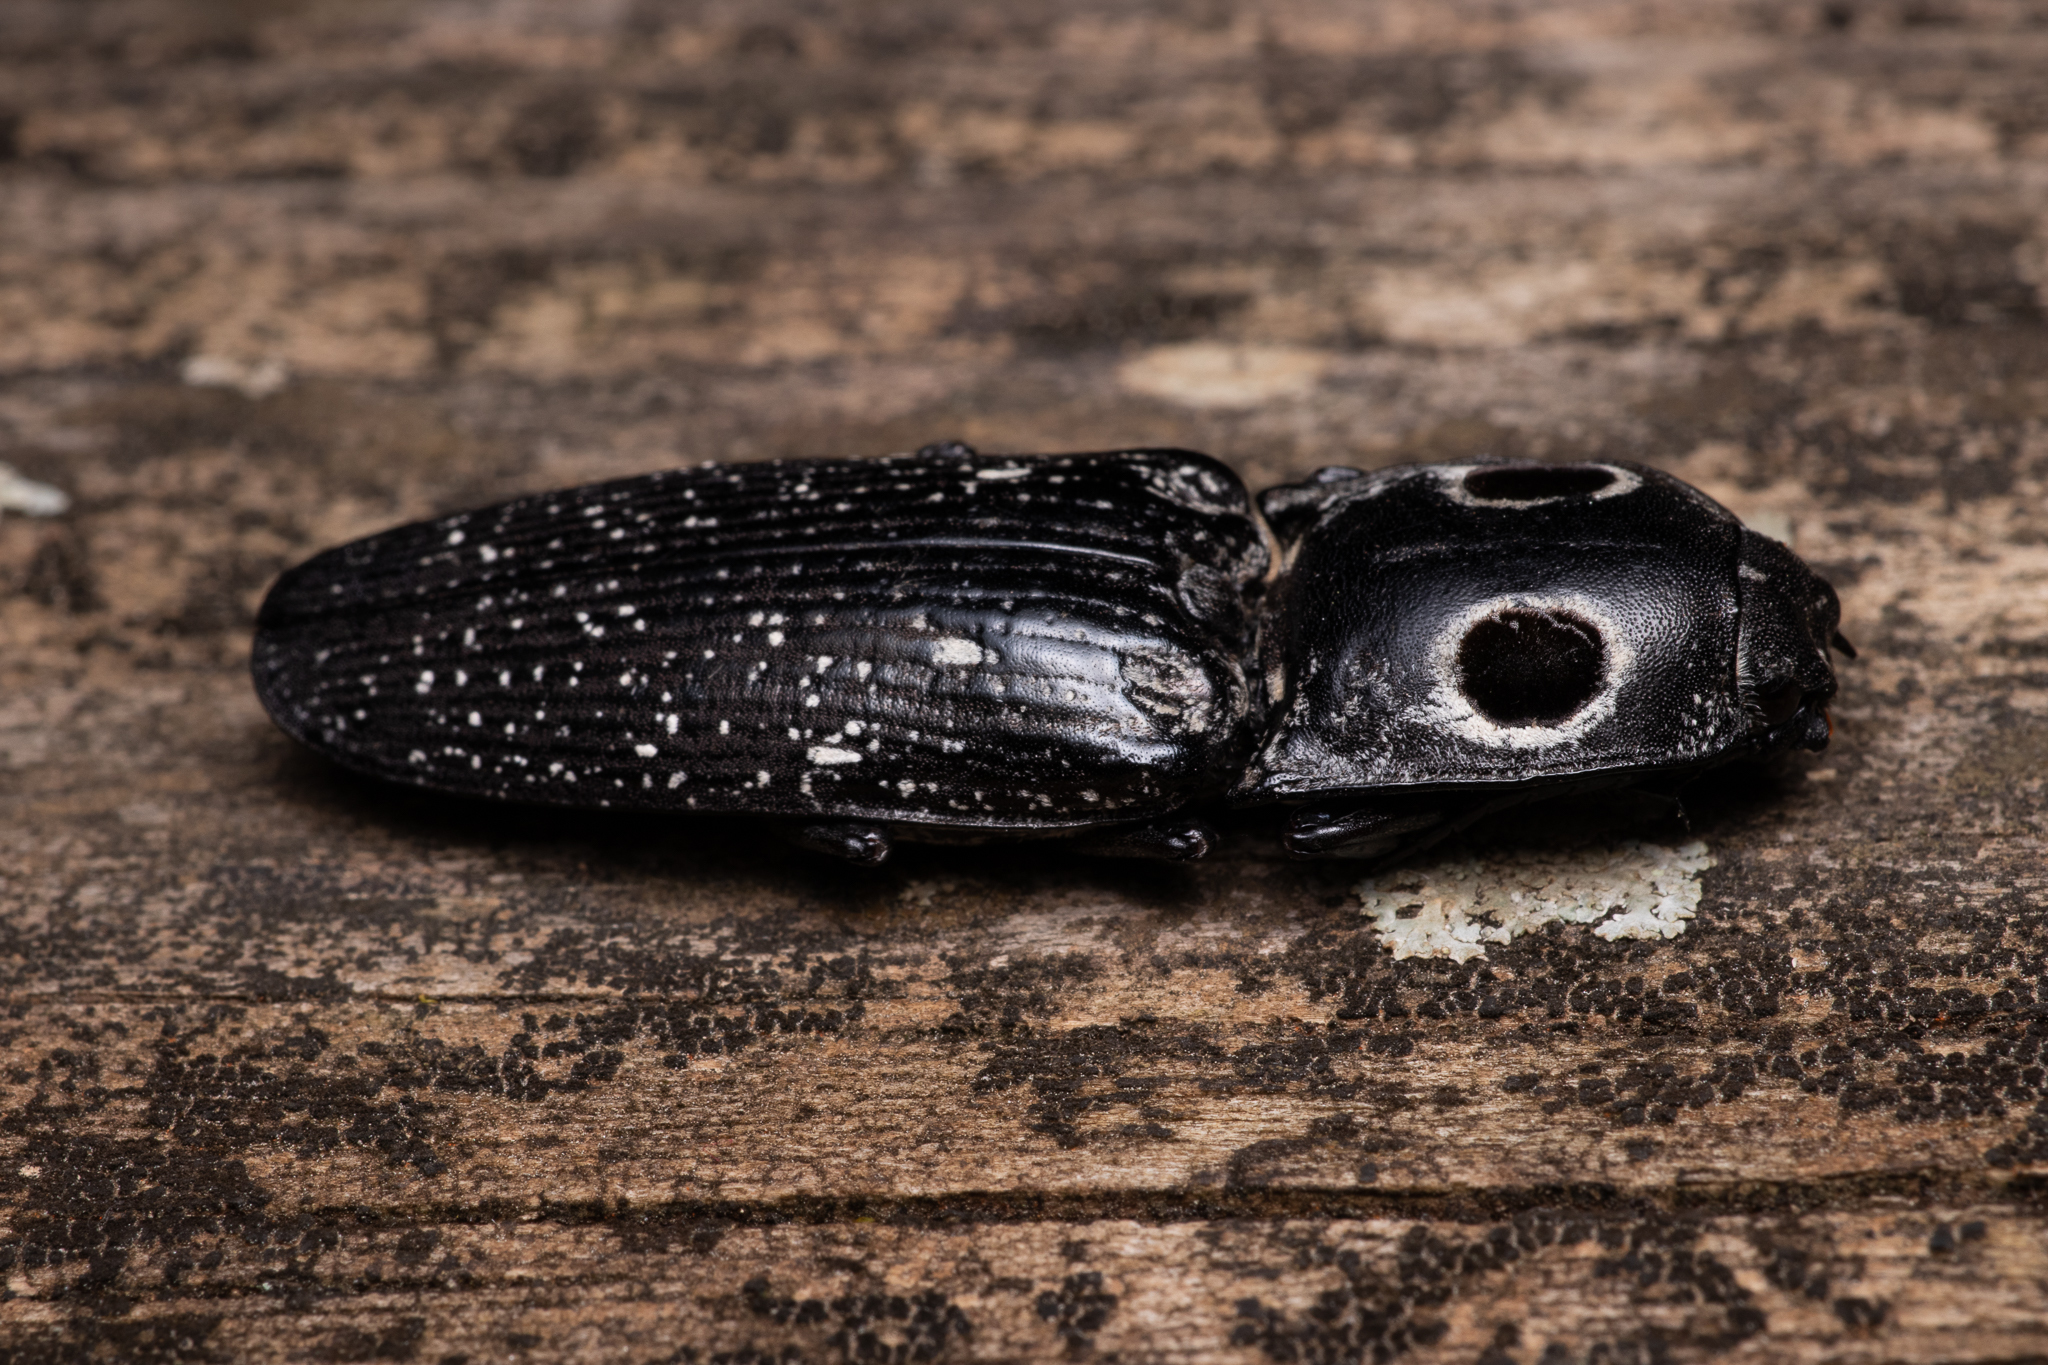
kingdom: Animalia
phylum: Arthropoda
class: Insecta
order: Coleoptera
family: Elateridae
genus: Alaus
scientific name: Alaus oculatus
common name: Eastern eyed click beetle
